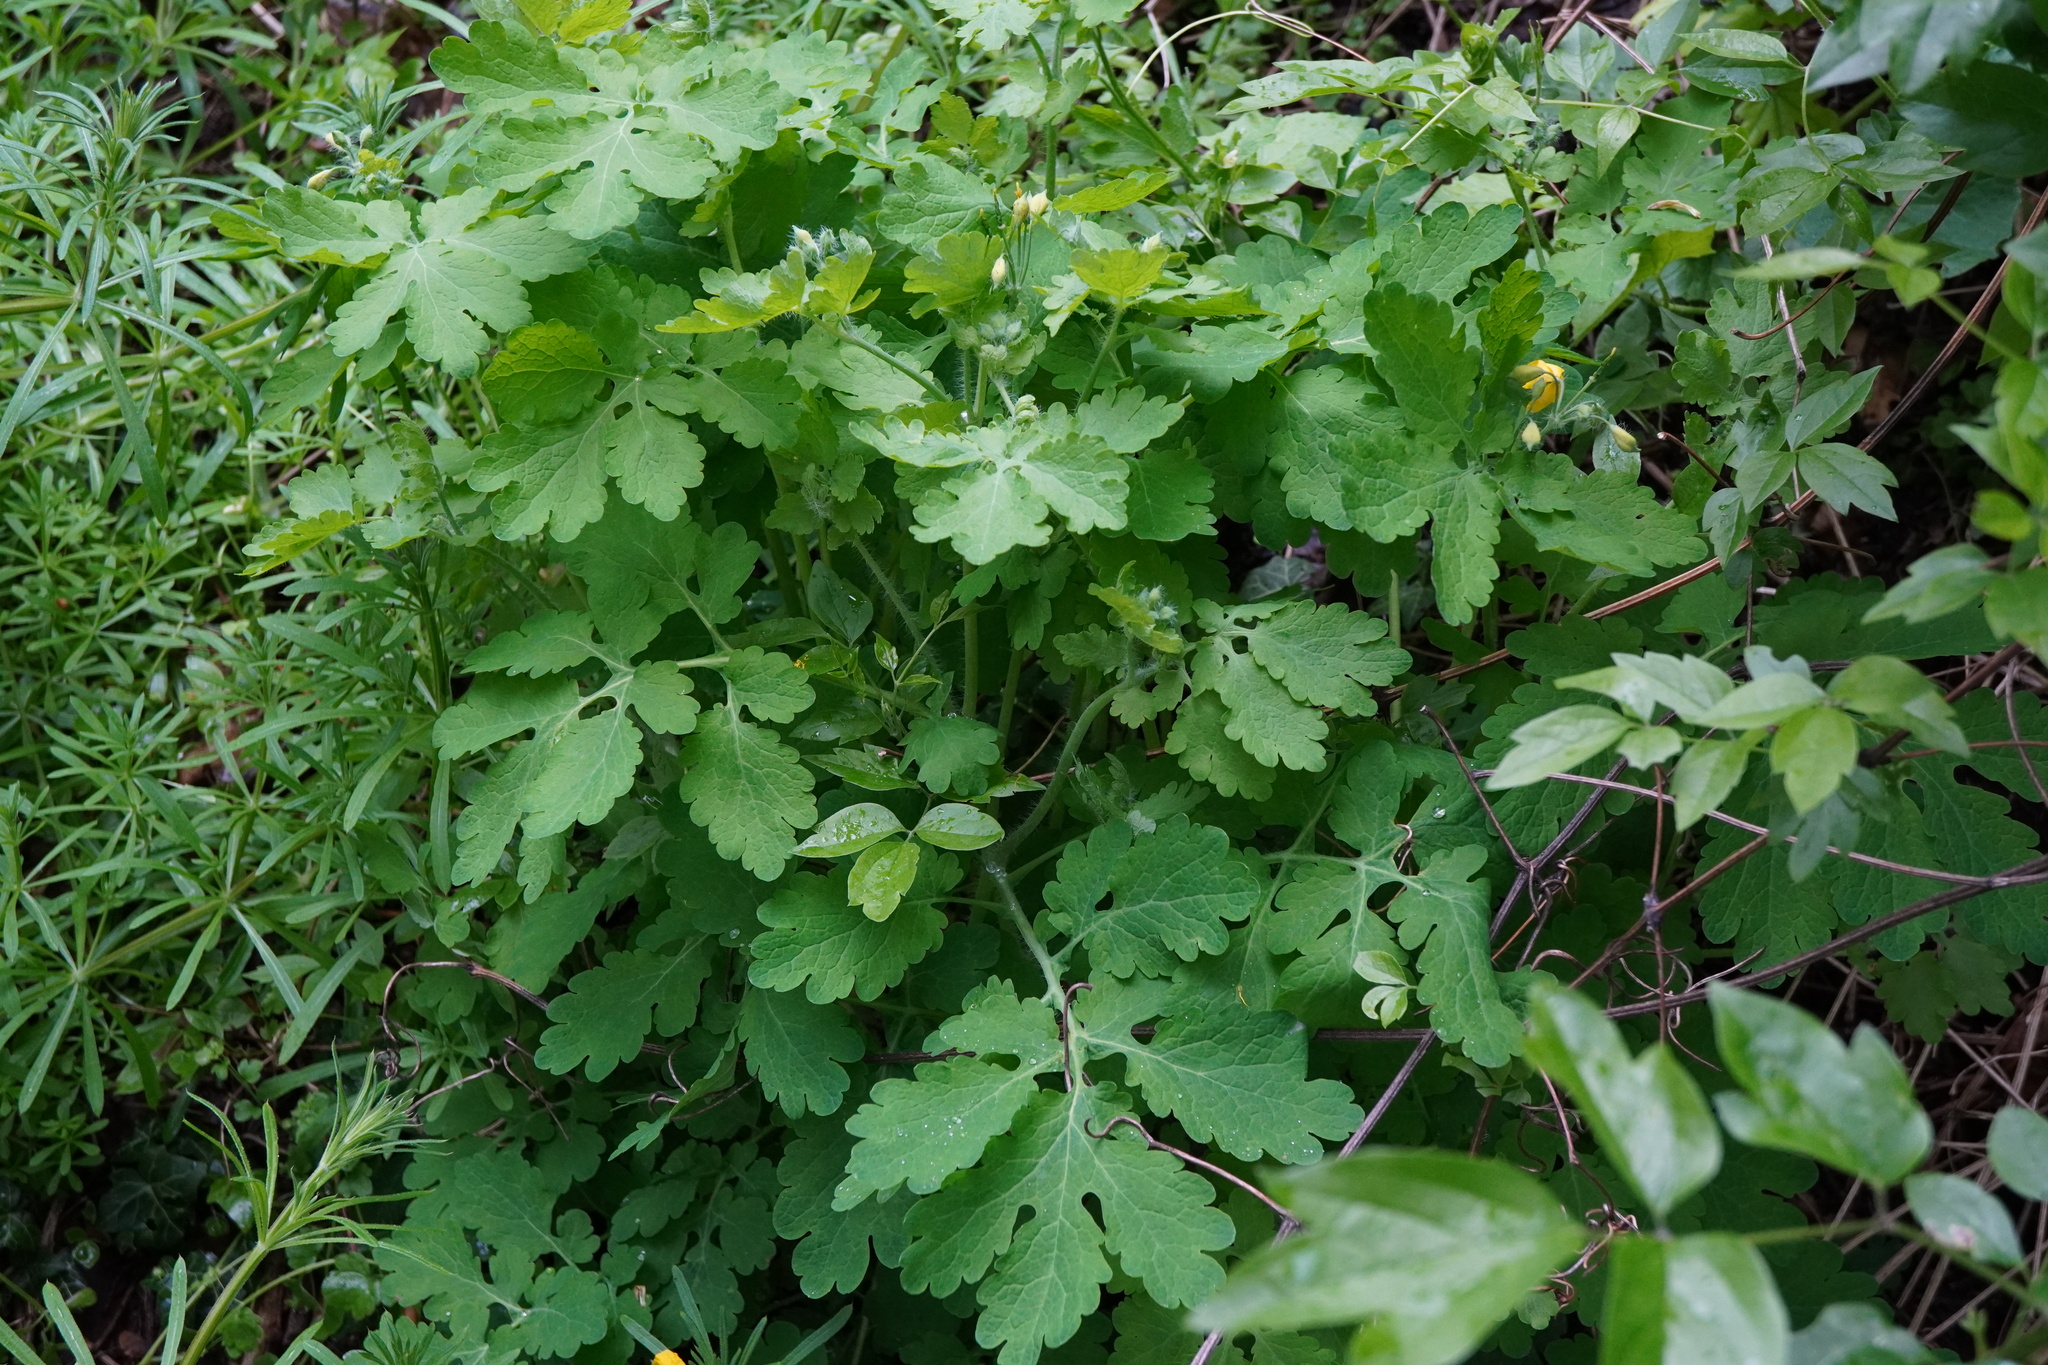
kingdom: Plantae
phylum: Tracheophyta
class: Magnoliopsida
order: Ranunculales
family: Papaveraceae
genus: Chelidonium
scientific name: Chelidonium majus
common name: Greater celandine
